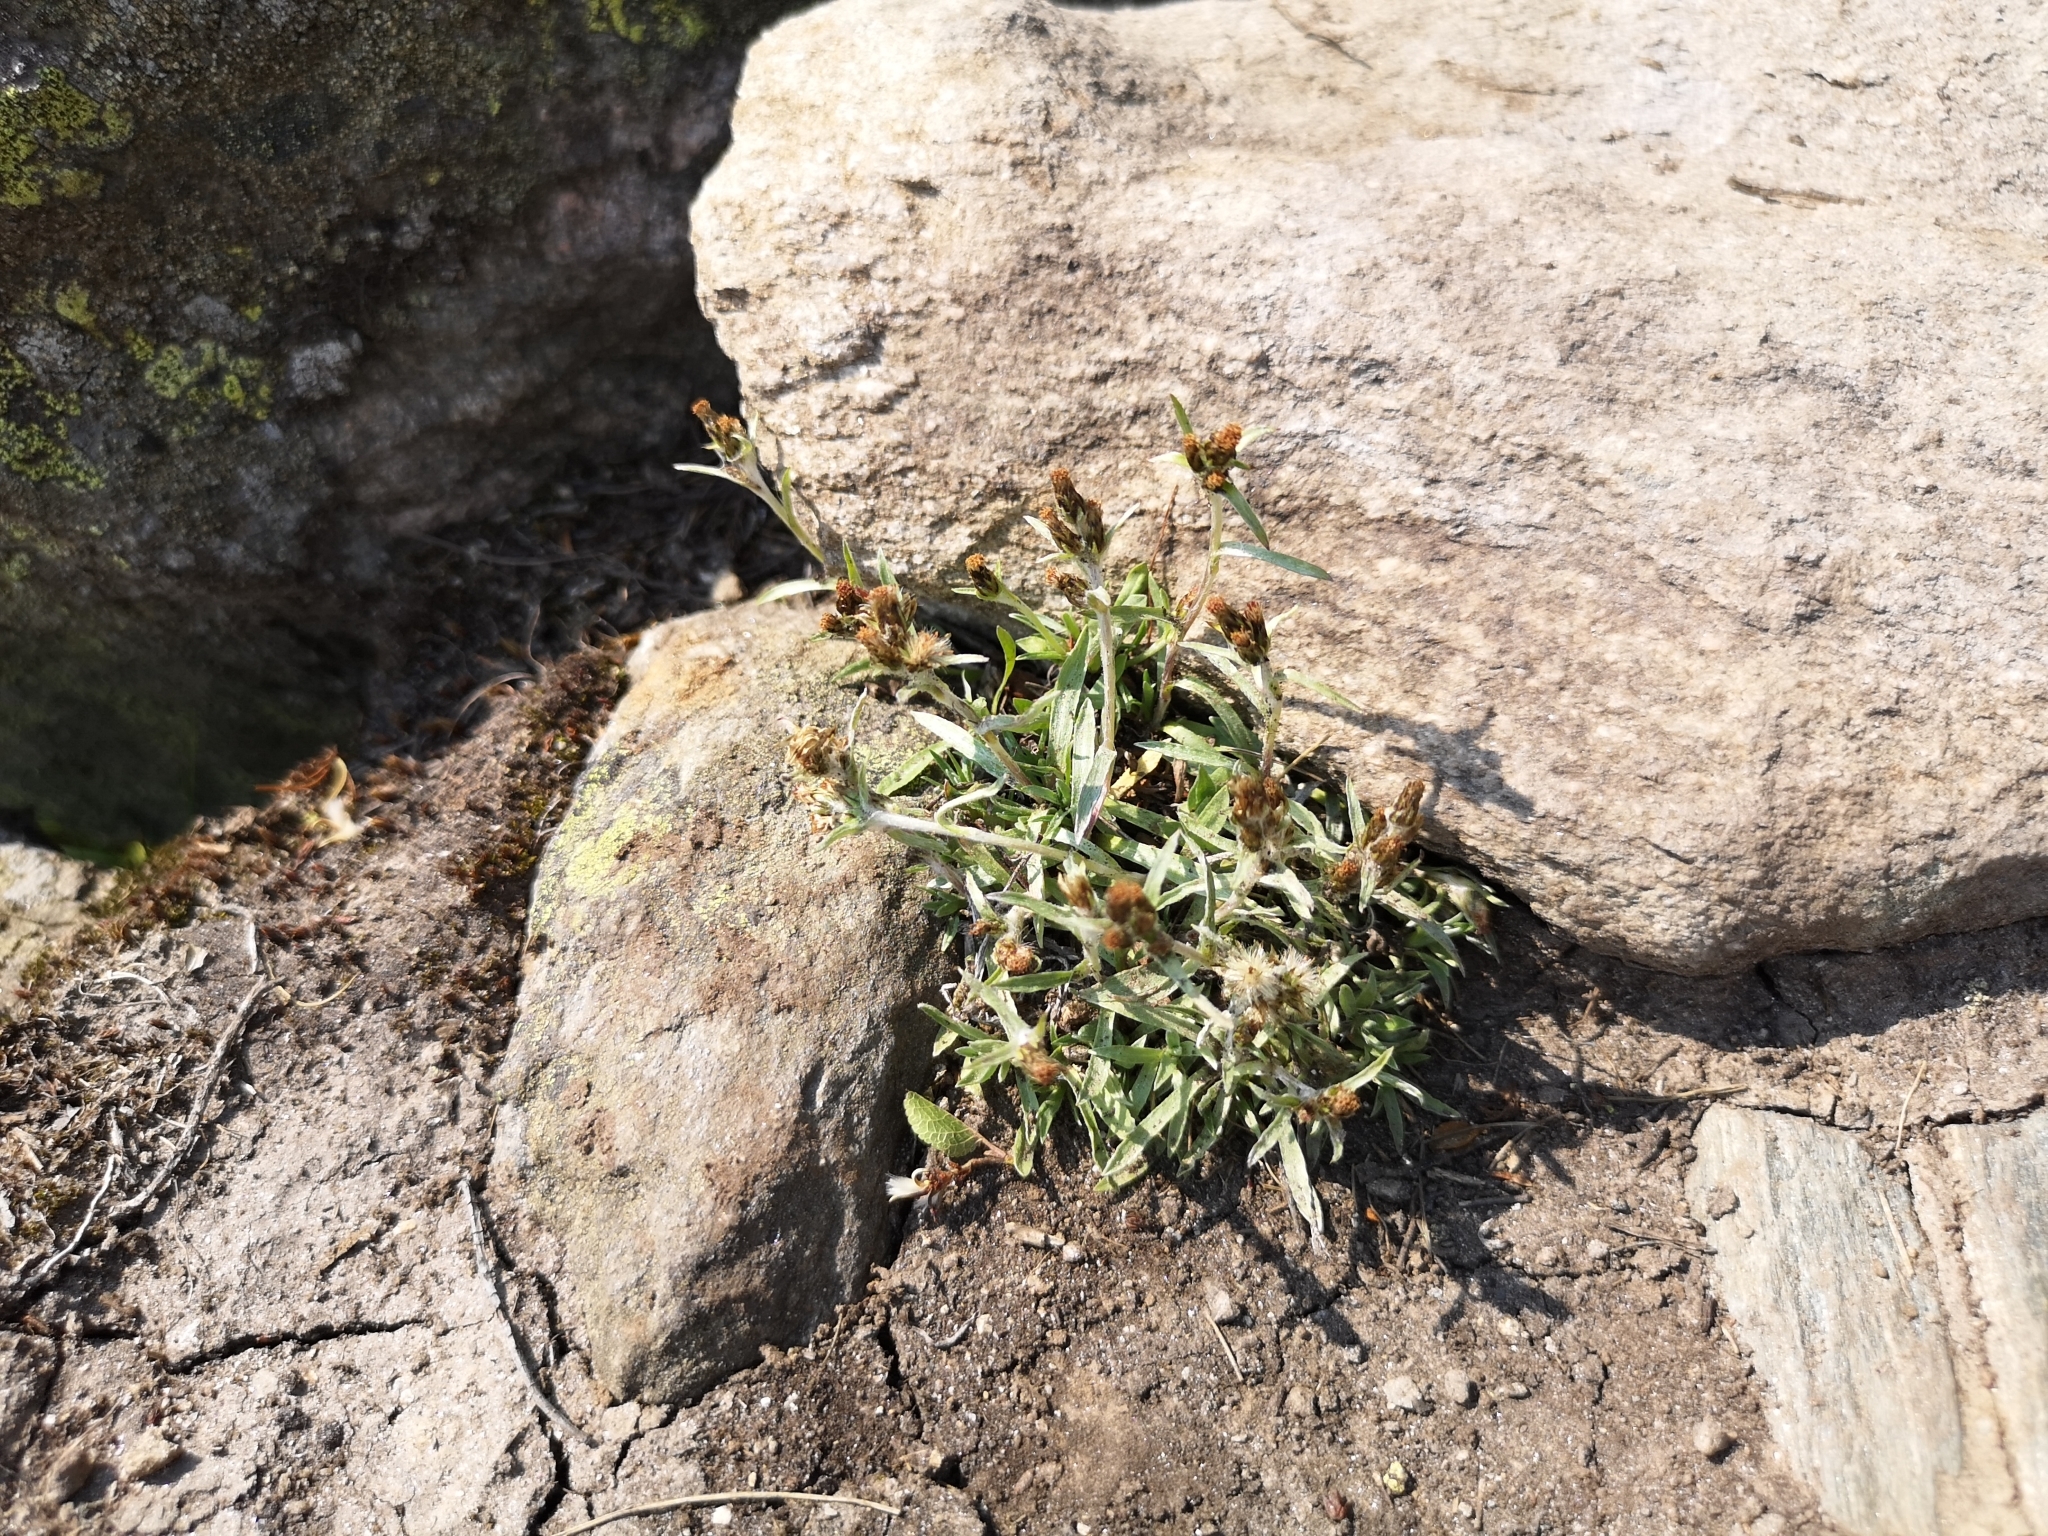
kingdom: Plantae
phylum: Tracheophyta
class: Magnoliopsida
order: Asterales
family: Asteraceae
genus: Omalotheca
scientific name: Omalotheca supina
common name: Alpine arctic-cudweed
